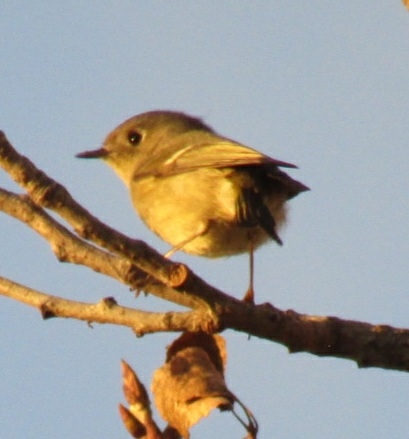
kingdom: Animalia
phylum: Chordata
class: Aves
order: Passeriformes
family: Regulidae
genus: Regulus
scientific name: Regulus calendula
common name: Ruby-crowned kinglet
